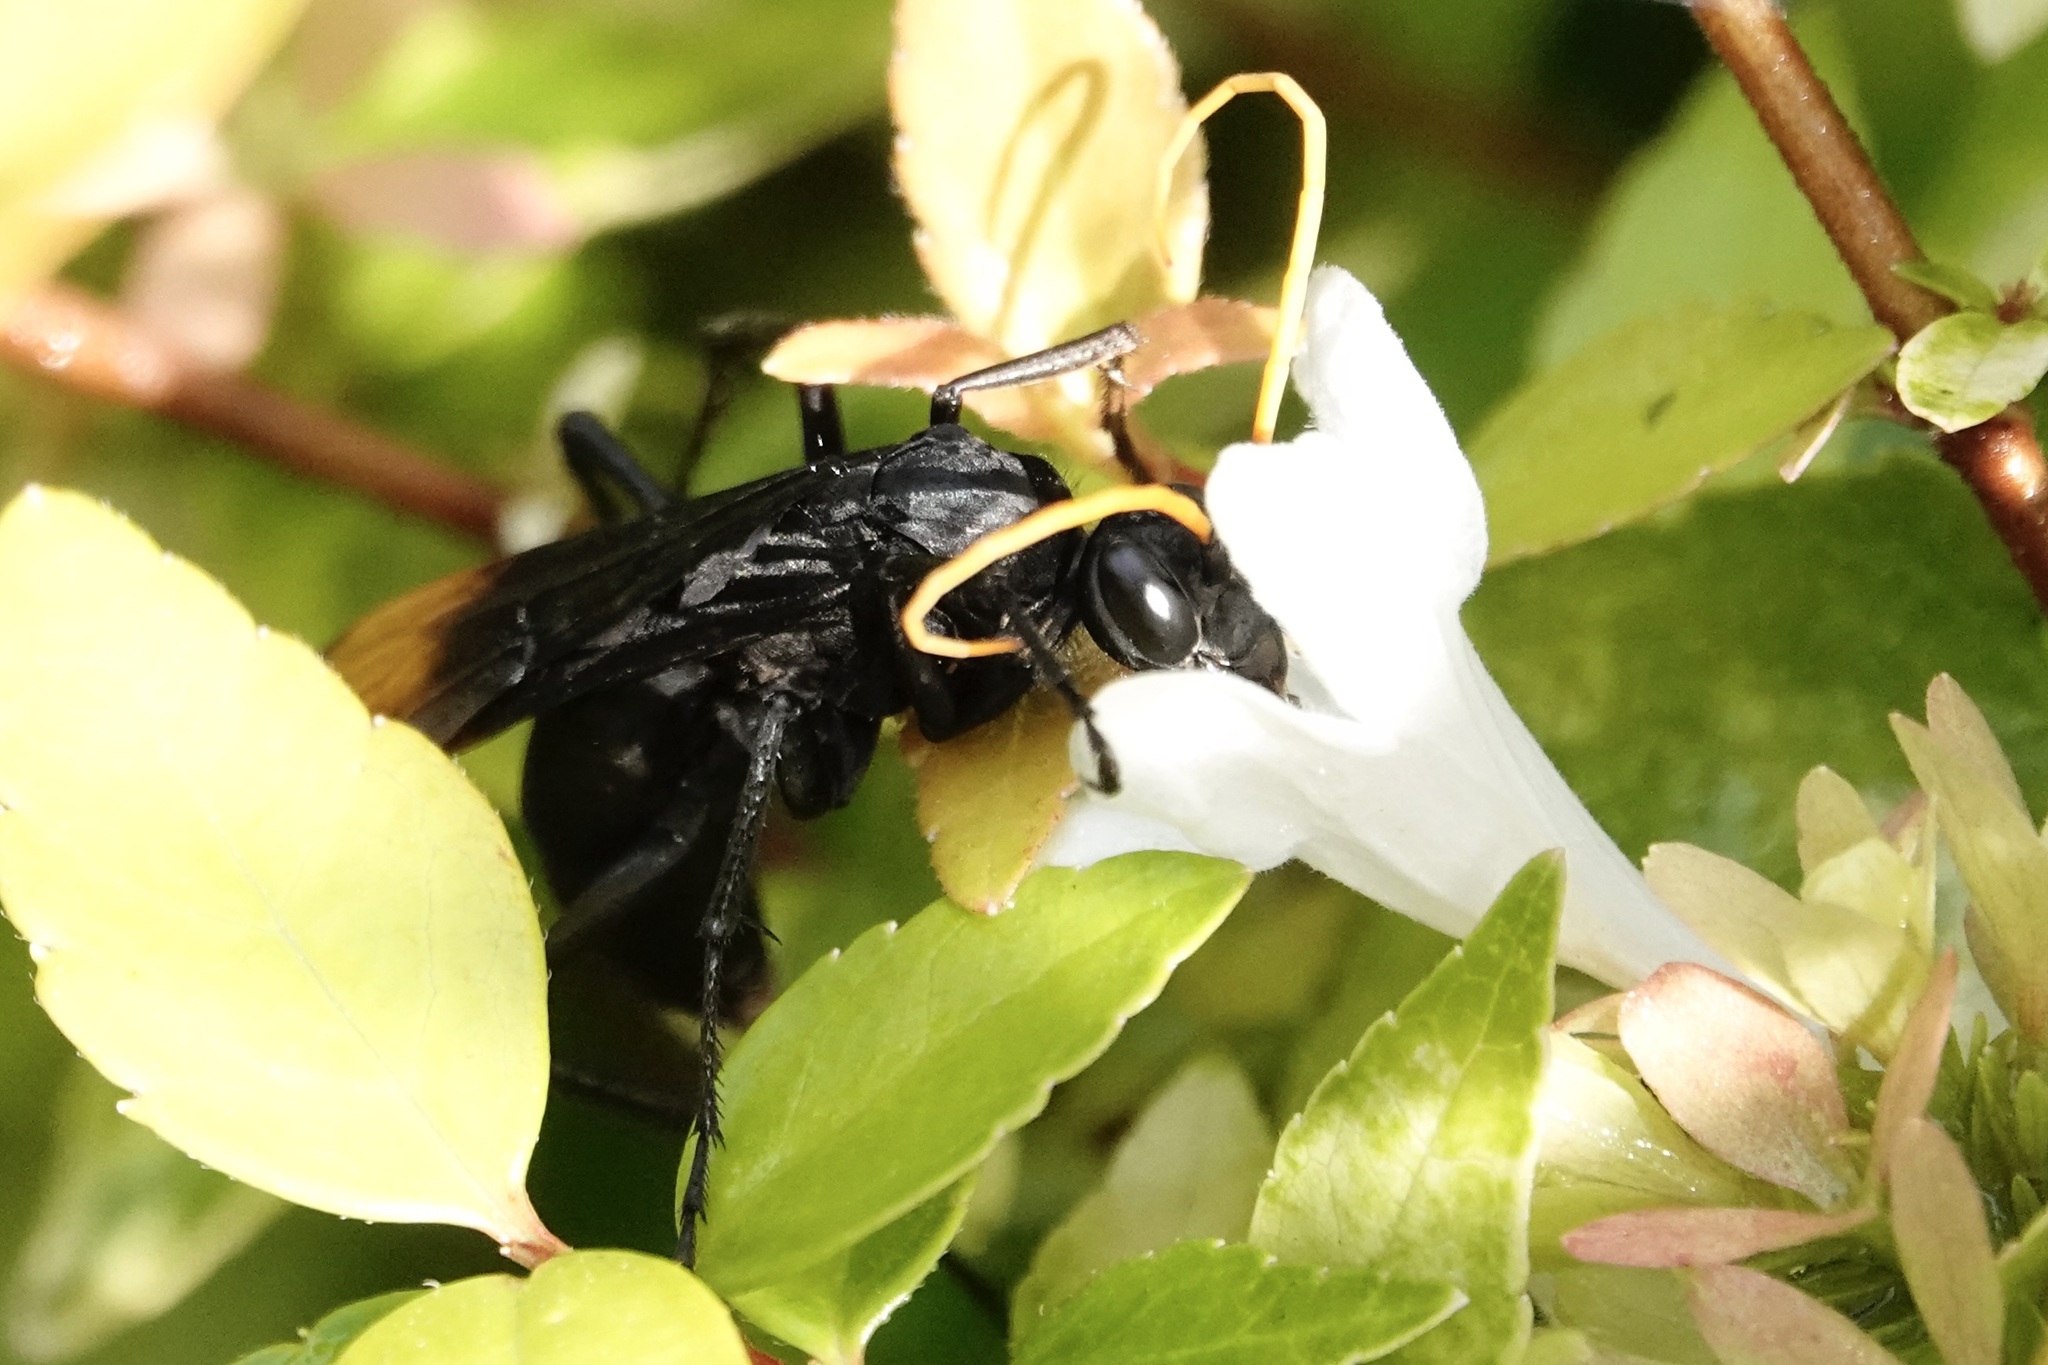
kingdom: Animalia
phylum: Arthropoda
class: Insecta
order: Hymenoptera
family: Pompilidae
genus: Entypus
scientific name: Entypus unifasciatus
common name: Eastern tawny-horned spider wasp
